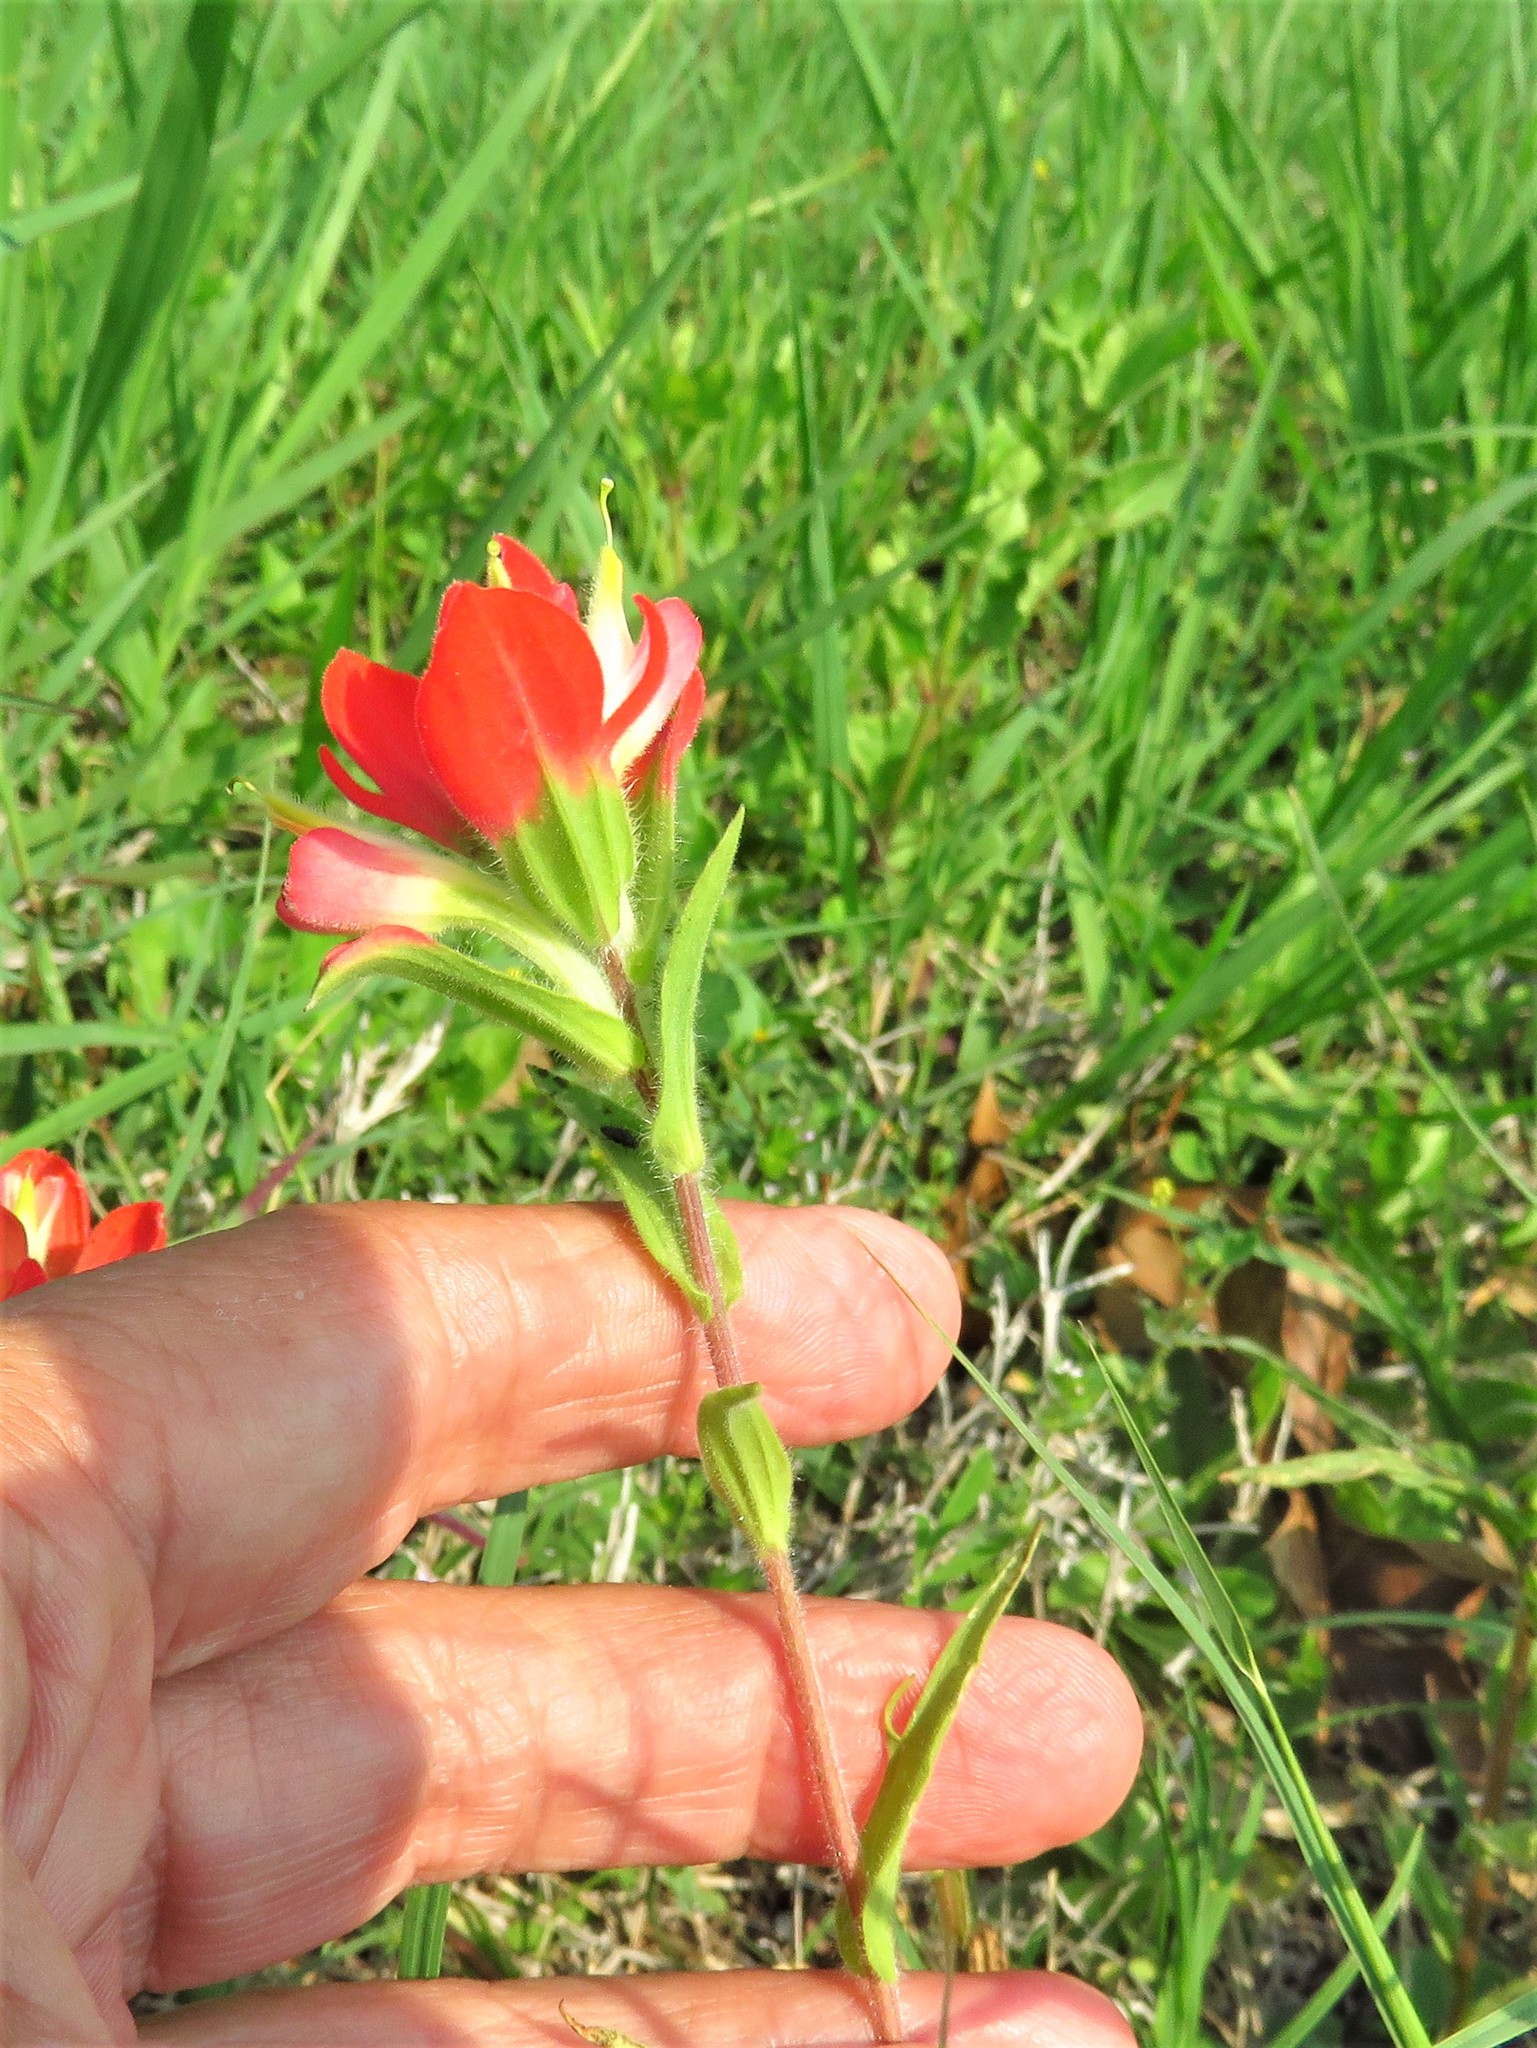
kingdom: Plantae
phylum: Tracheophyta
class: Magnoliopsida
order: Lamiales
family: Orobanchaceae
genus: Castilleja
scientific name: Castilleja indivisa
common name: Texas paintbrush
